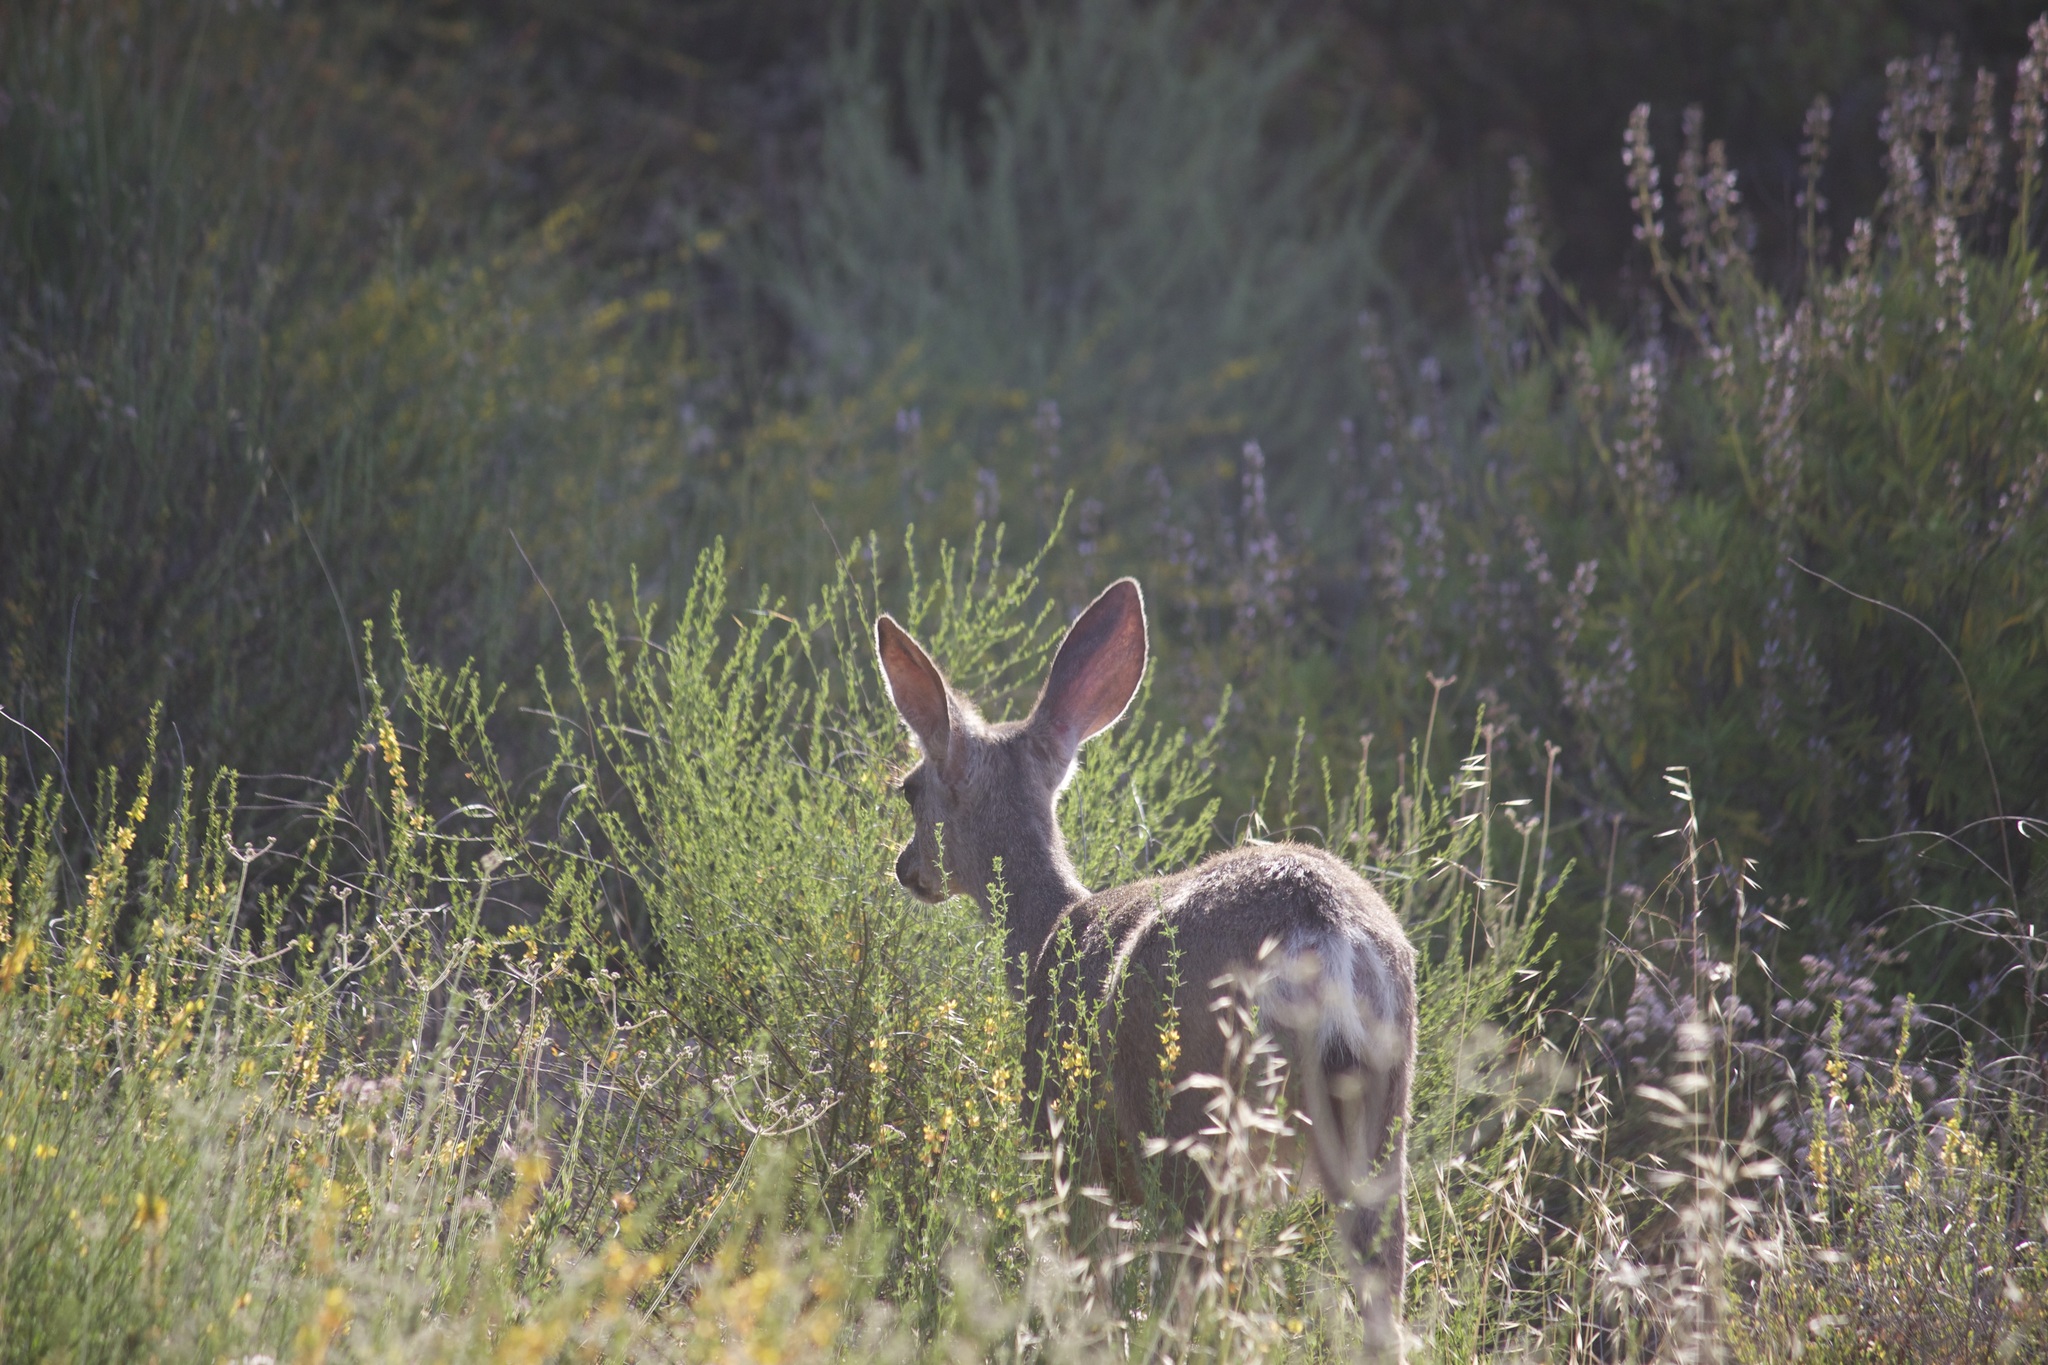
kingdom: Animalia
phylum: Chordata
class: Mammalia
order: Artiodactyla
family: Cervidae
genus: Odocoileus
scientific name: Odocoileus hemionus
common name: Mule deer
